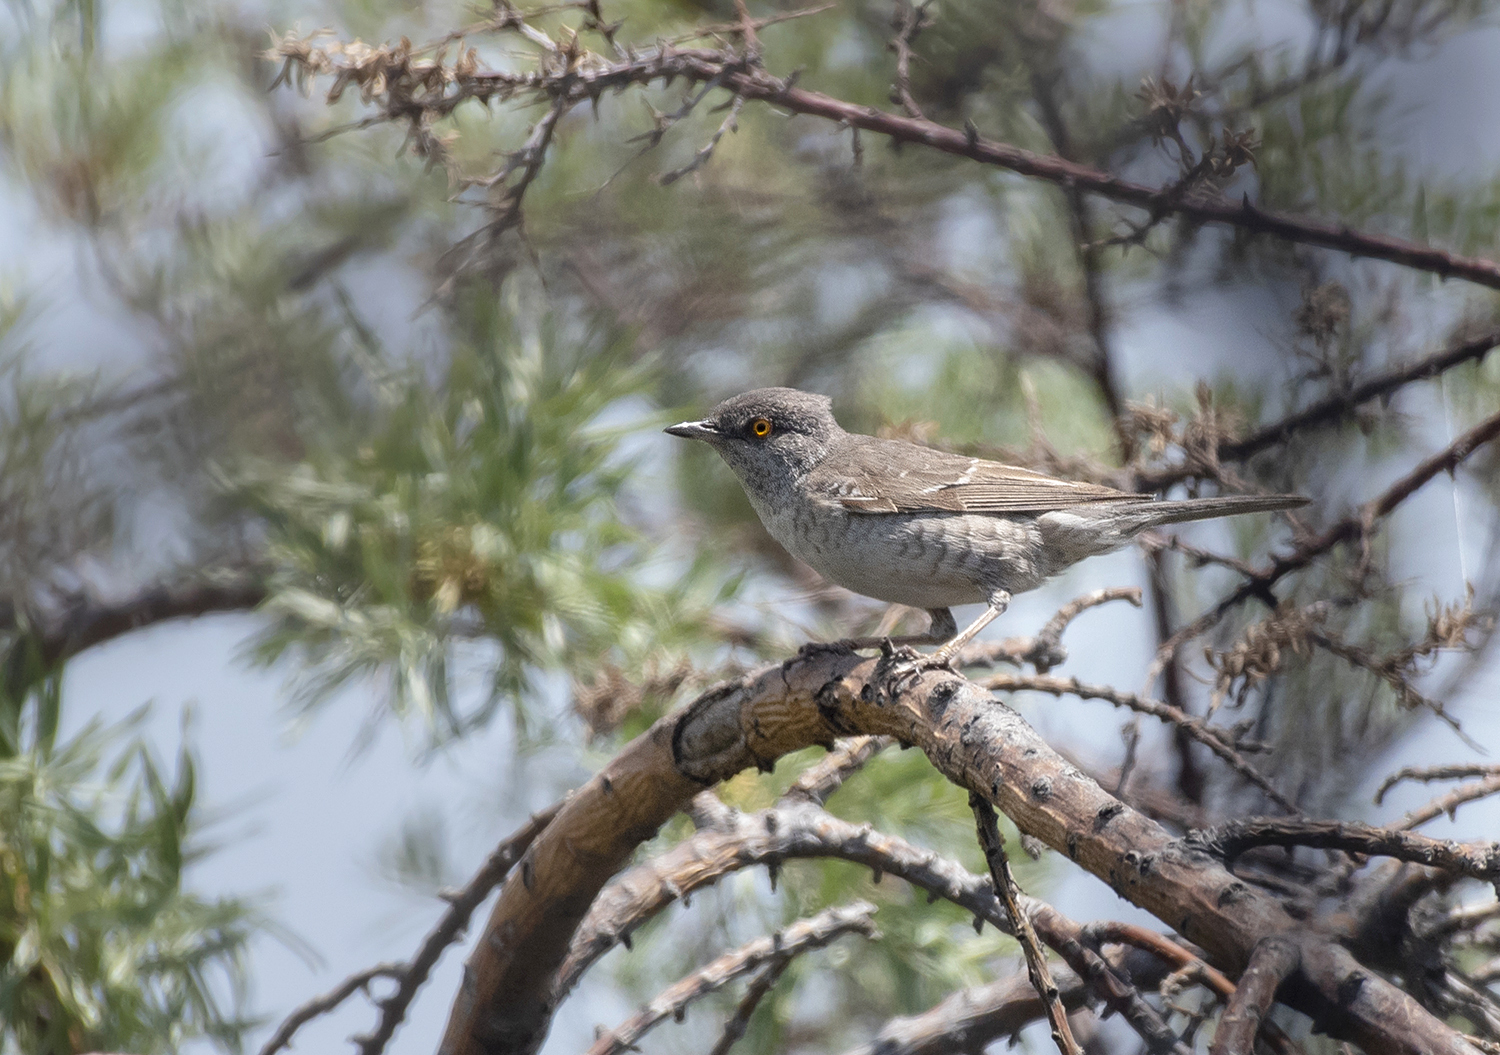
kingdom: Animalia
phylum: Chordata
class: Aves
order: Passeriformes
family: Sylviidae
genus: Sylvia
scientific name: Sylvia nisoria
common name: Barred warbler
